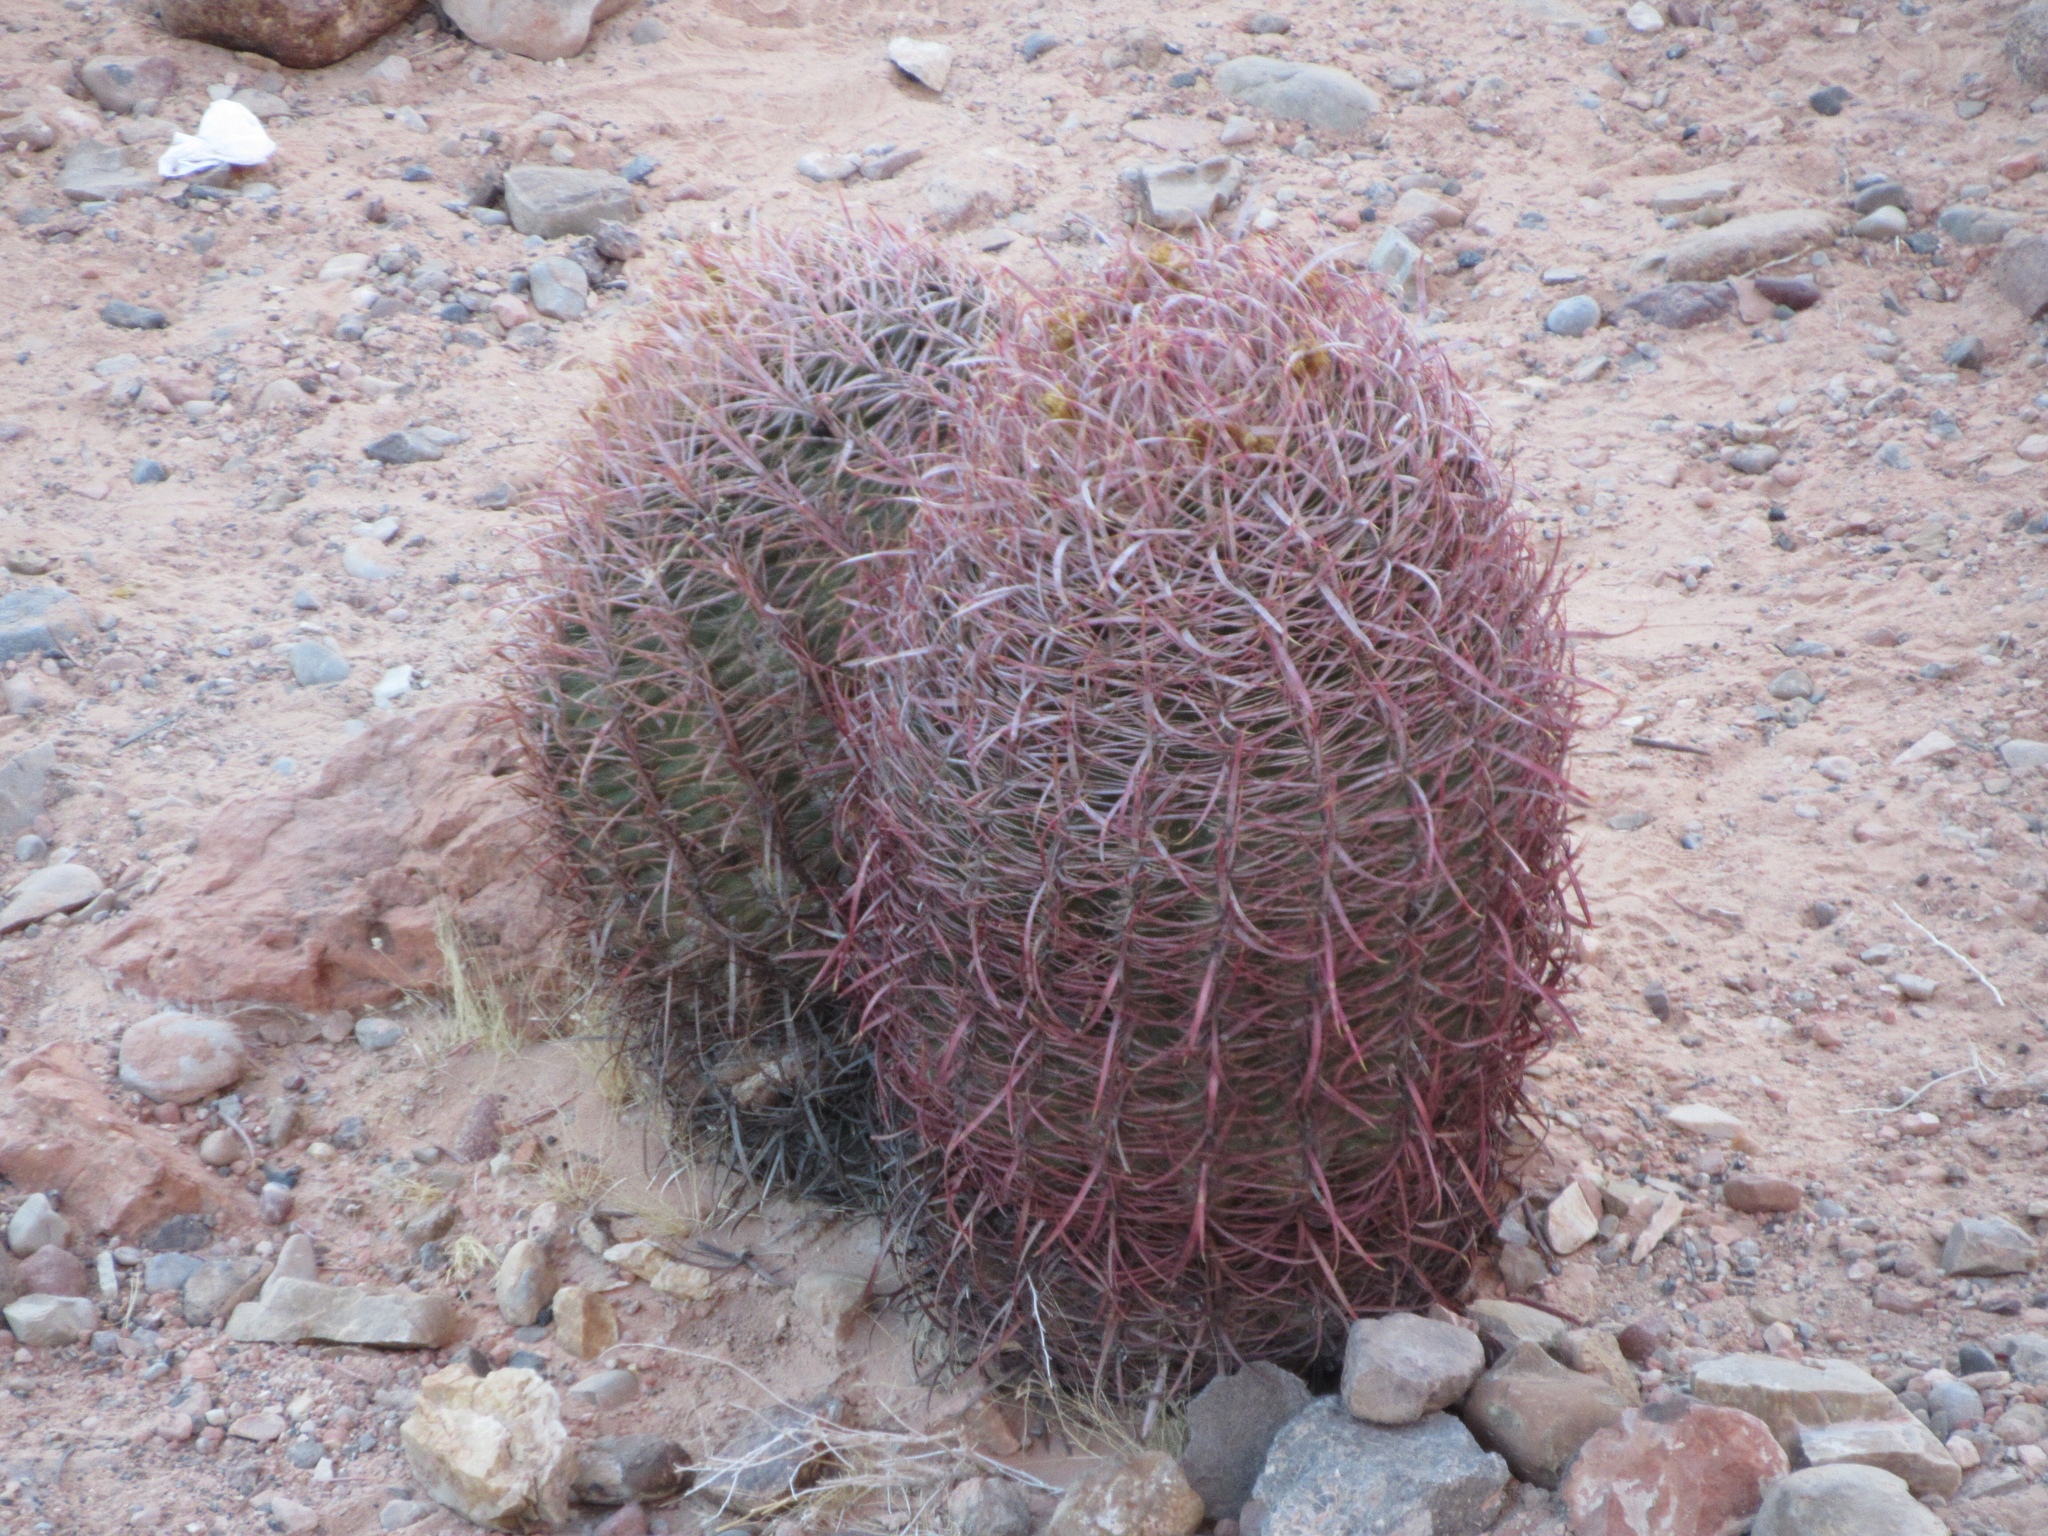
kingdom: Plantae
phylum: Tracheophyta
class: Magnoliopsida
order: Caryophyllales
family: Cactaceae
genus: Ferocactus
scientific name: Ferocactus cylindraceus
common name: California barrel cactus
